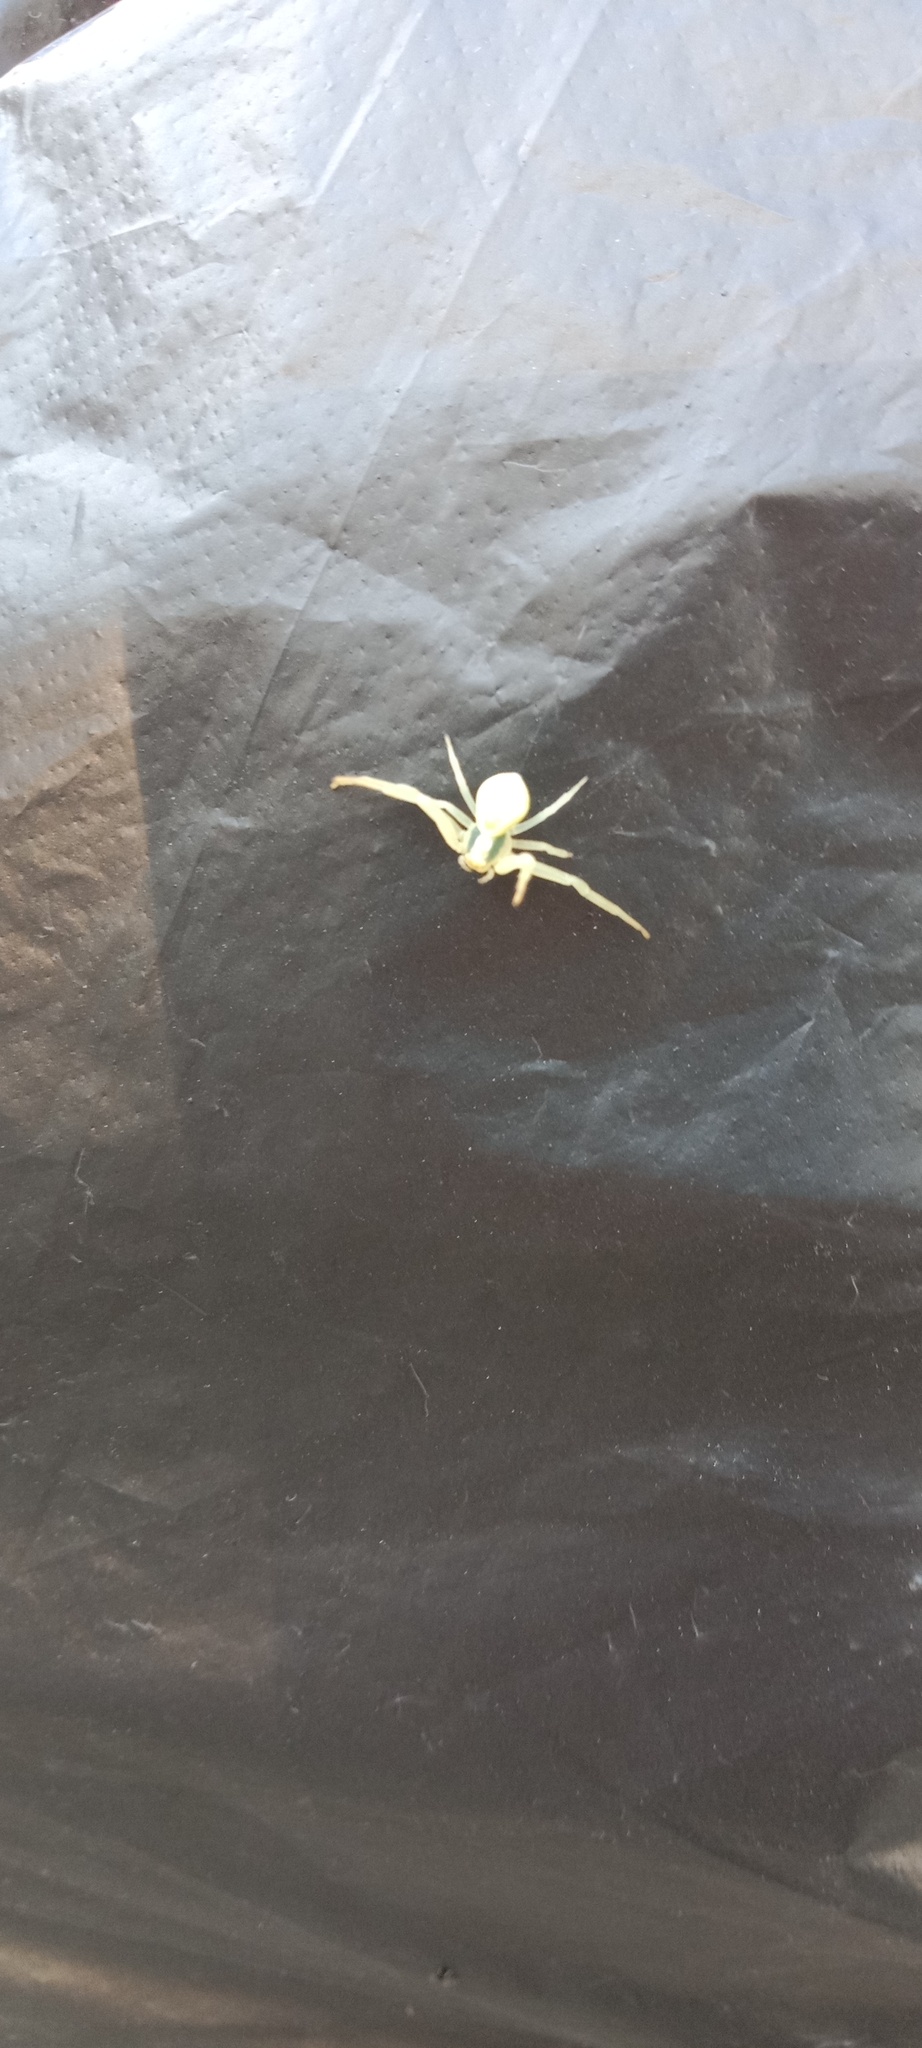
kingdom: Animalia
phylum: Arthropoda
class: Arachnida
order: Araneae
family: Thomisidae
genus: Misumena
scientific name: Misumena vatia
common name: Goldenrod crab spider
